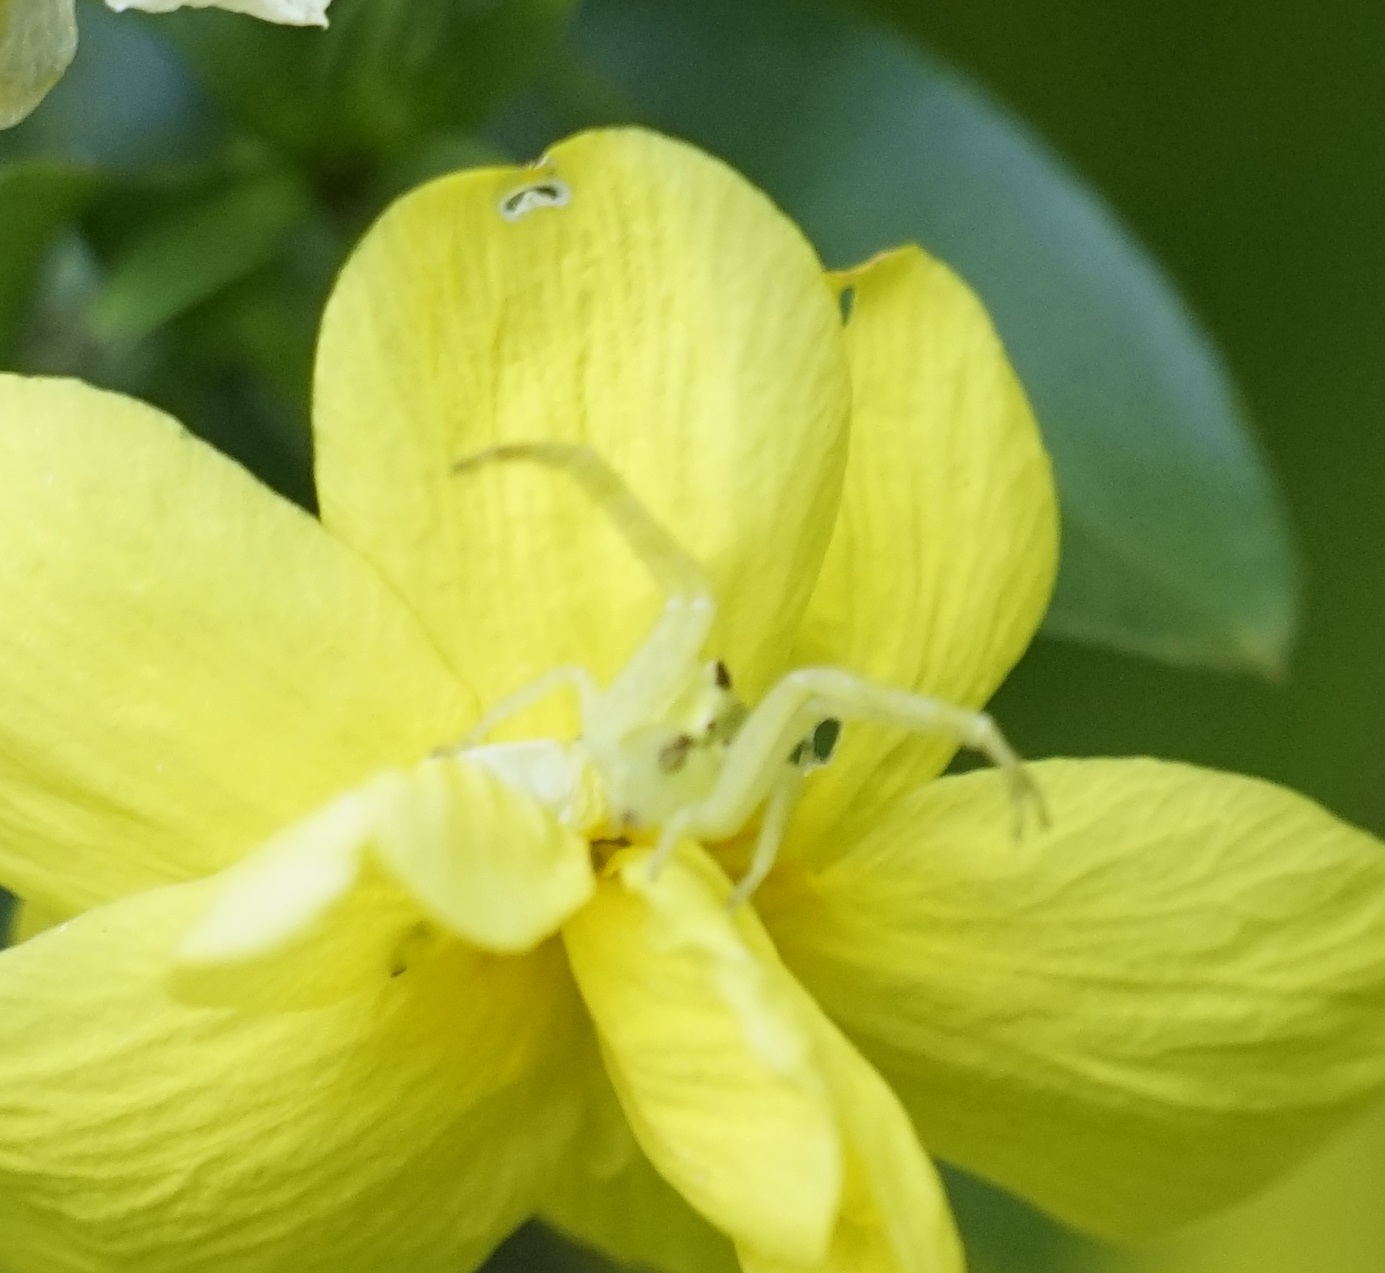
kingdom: Animalia
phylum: Arthropoda
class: Arachnida
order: Araneae
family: Thomisidae
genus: Sidymella
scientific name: Sidymella rubrosignata
